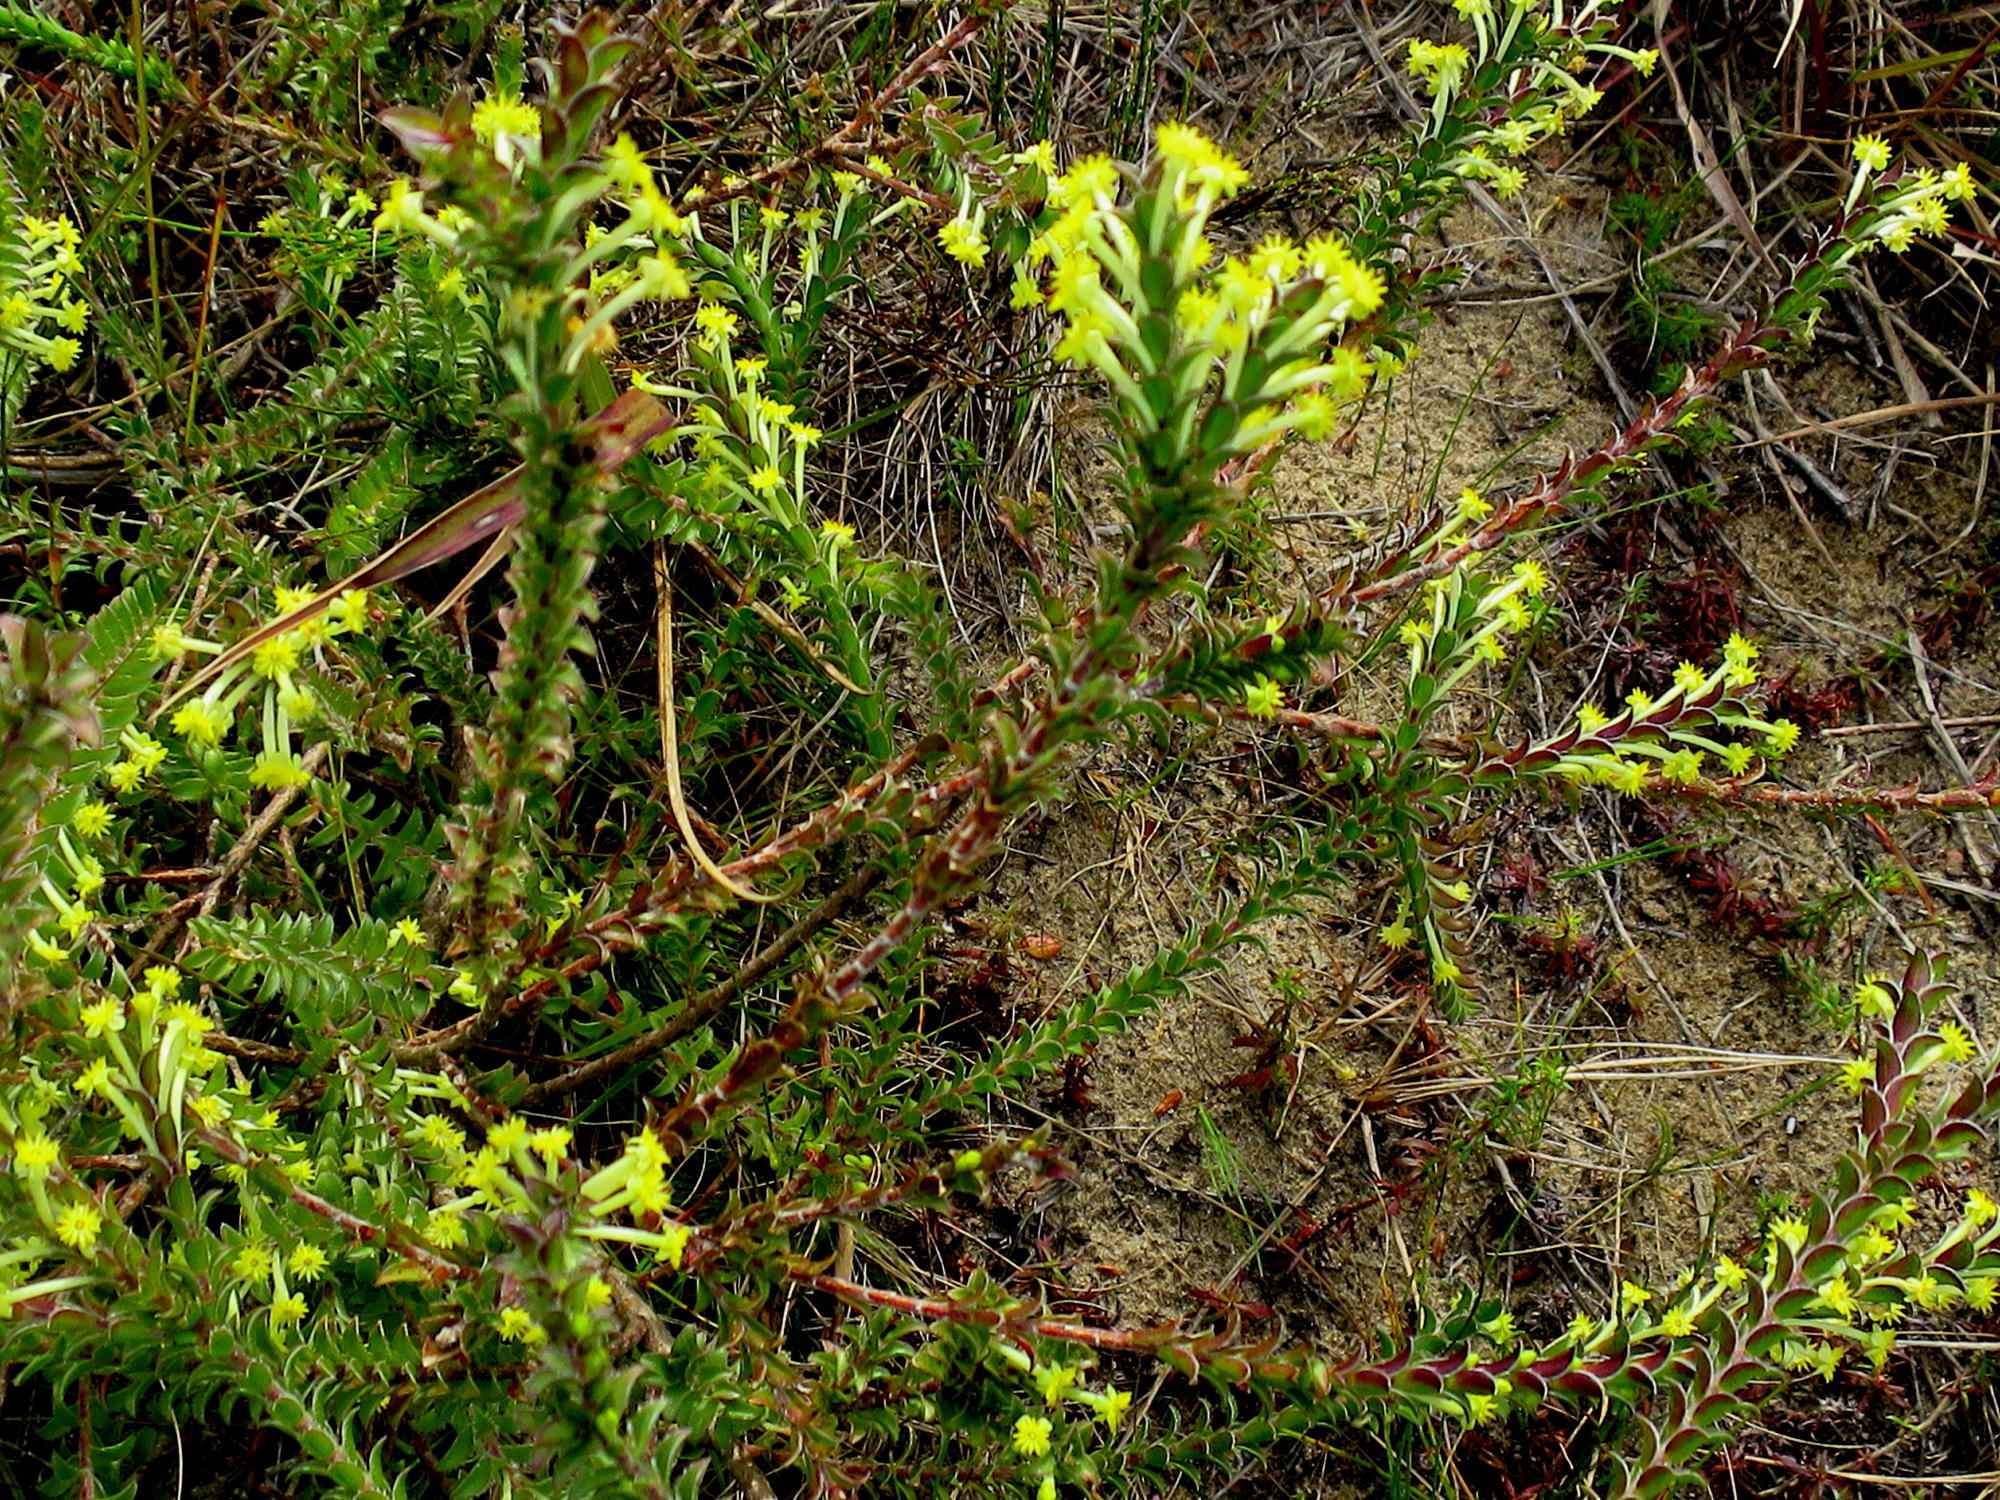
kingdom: Plantae
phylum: Tracheophyta
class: Magnoliopsida
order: Malvales
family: Thymelaeaceae
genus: Struthiola
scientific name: Struthiola argentea
